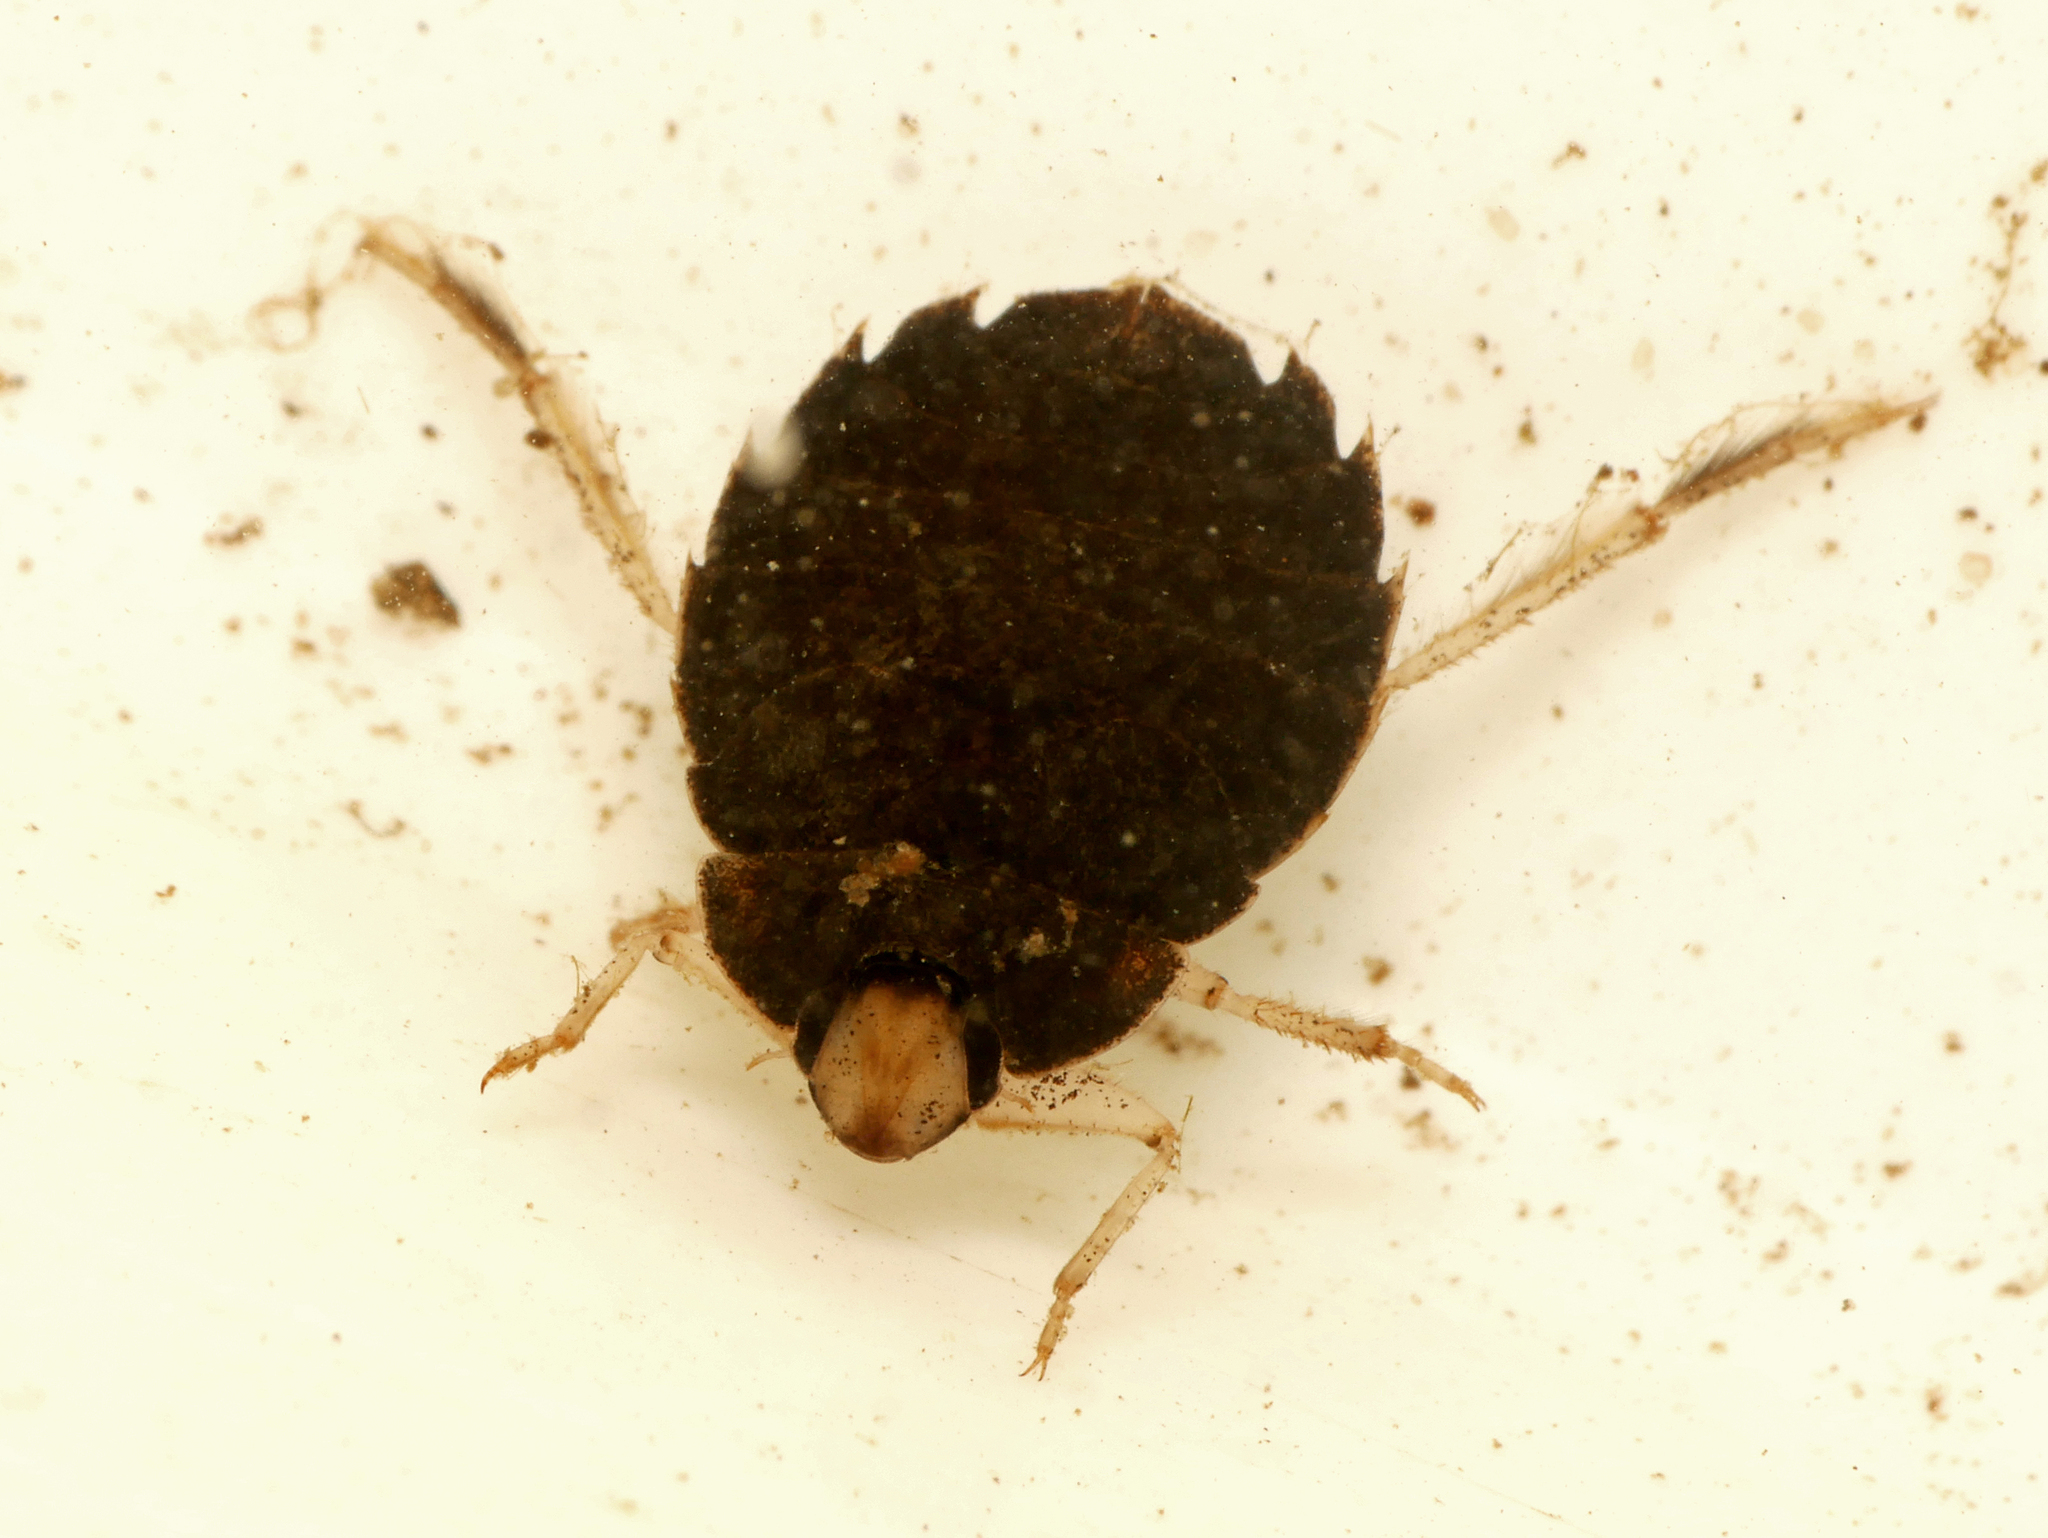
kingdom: Animalia
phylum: Arthropoda
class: Insecta
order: Hemiptera
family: Aphelocheiridae
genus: Aphelocheirus
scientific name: Aphelocheirus aestivalis
